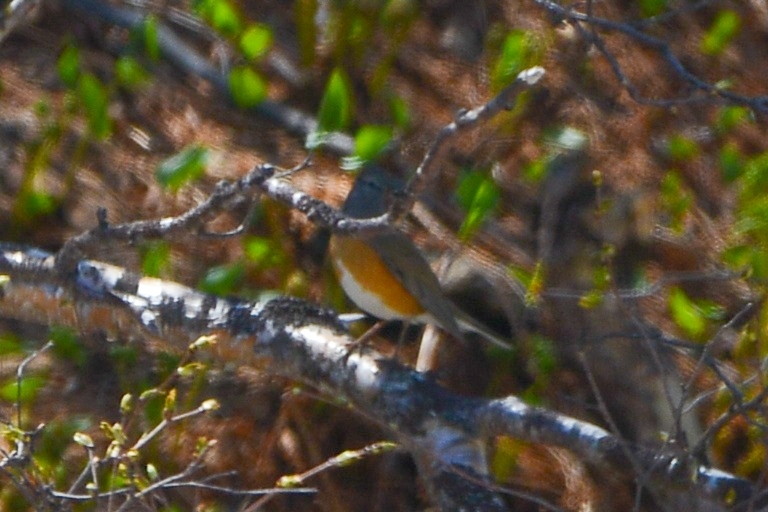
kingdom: Animalia
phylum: Chordata
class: Aves
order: Passeriformes
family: Turdidae
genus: Turdus
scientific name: Turdus obscurus
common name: Eyebrowed thrush
